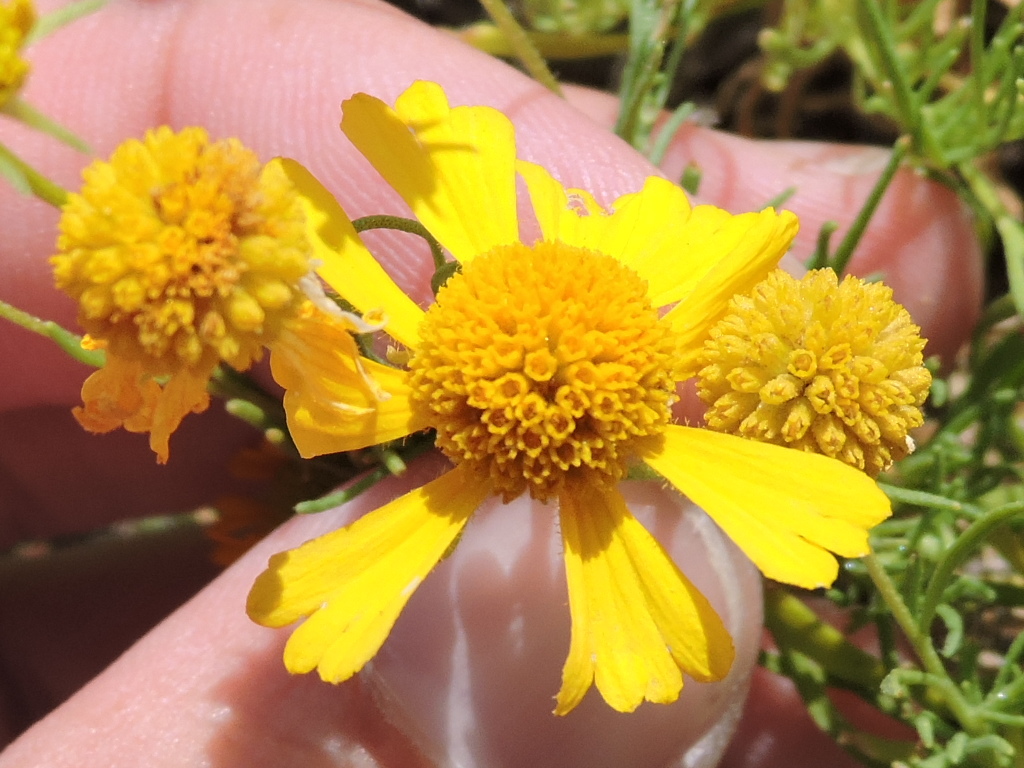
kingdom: Plantae
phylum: Tracheophyta
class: Magnoliopsida
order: Asterales
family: Asteraceae
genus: Helenium
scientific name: Helenium amarum
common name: Bitter sneezeweed
